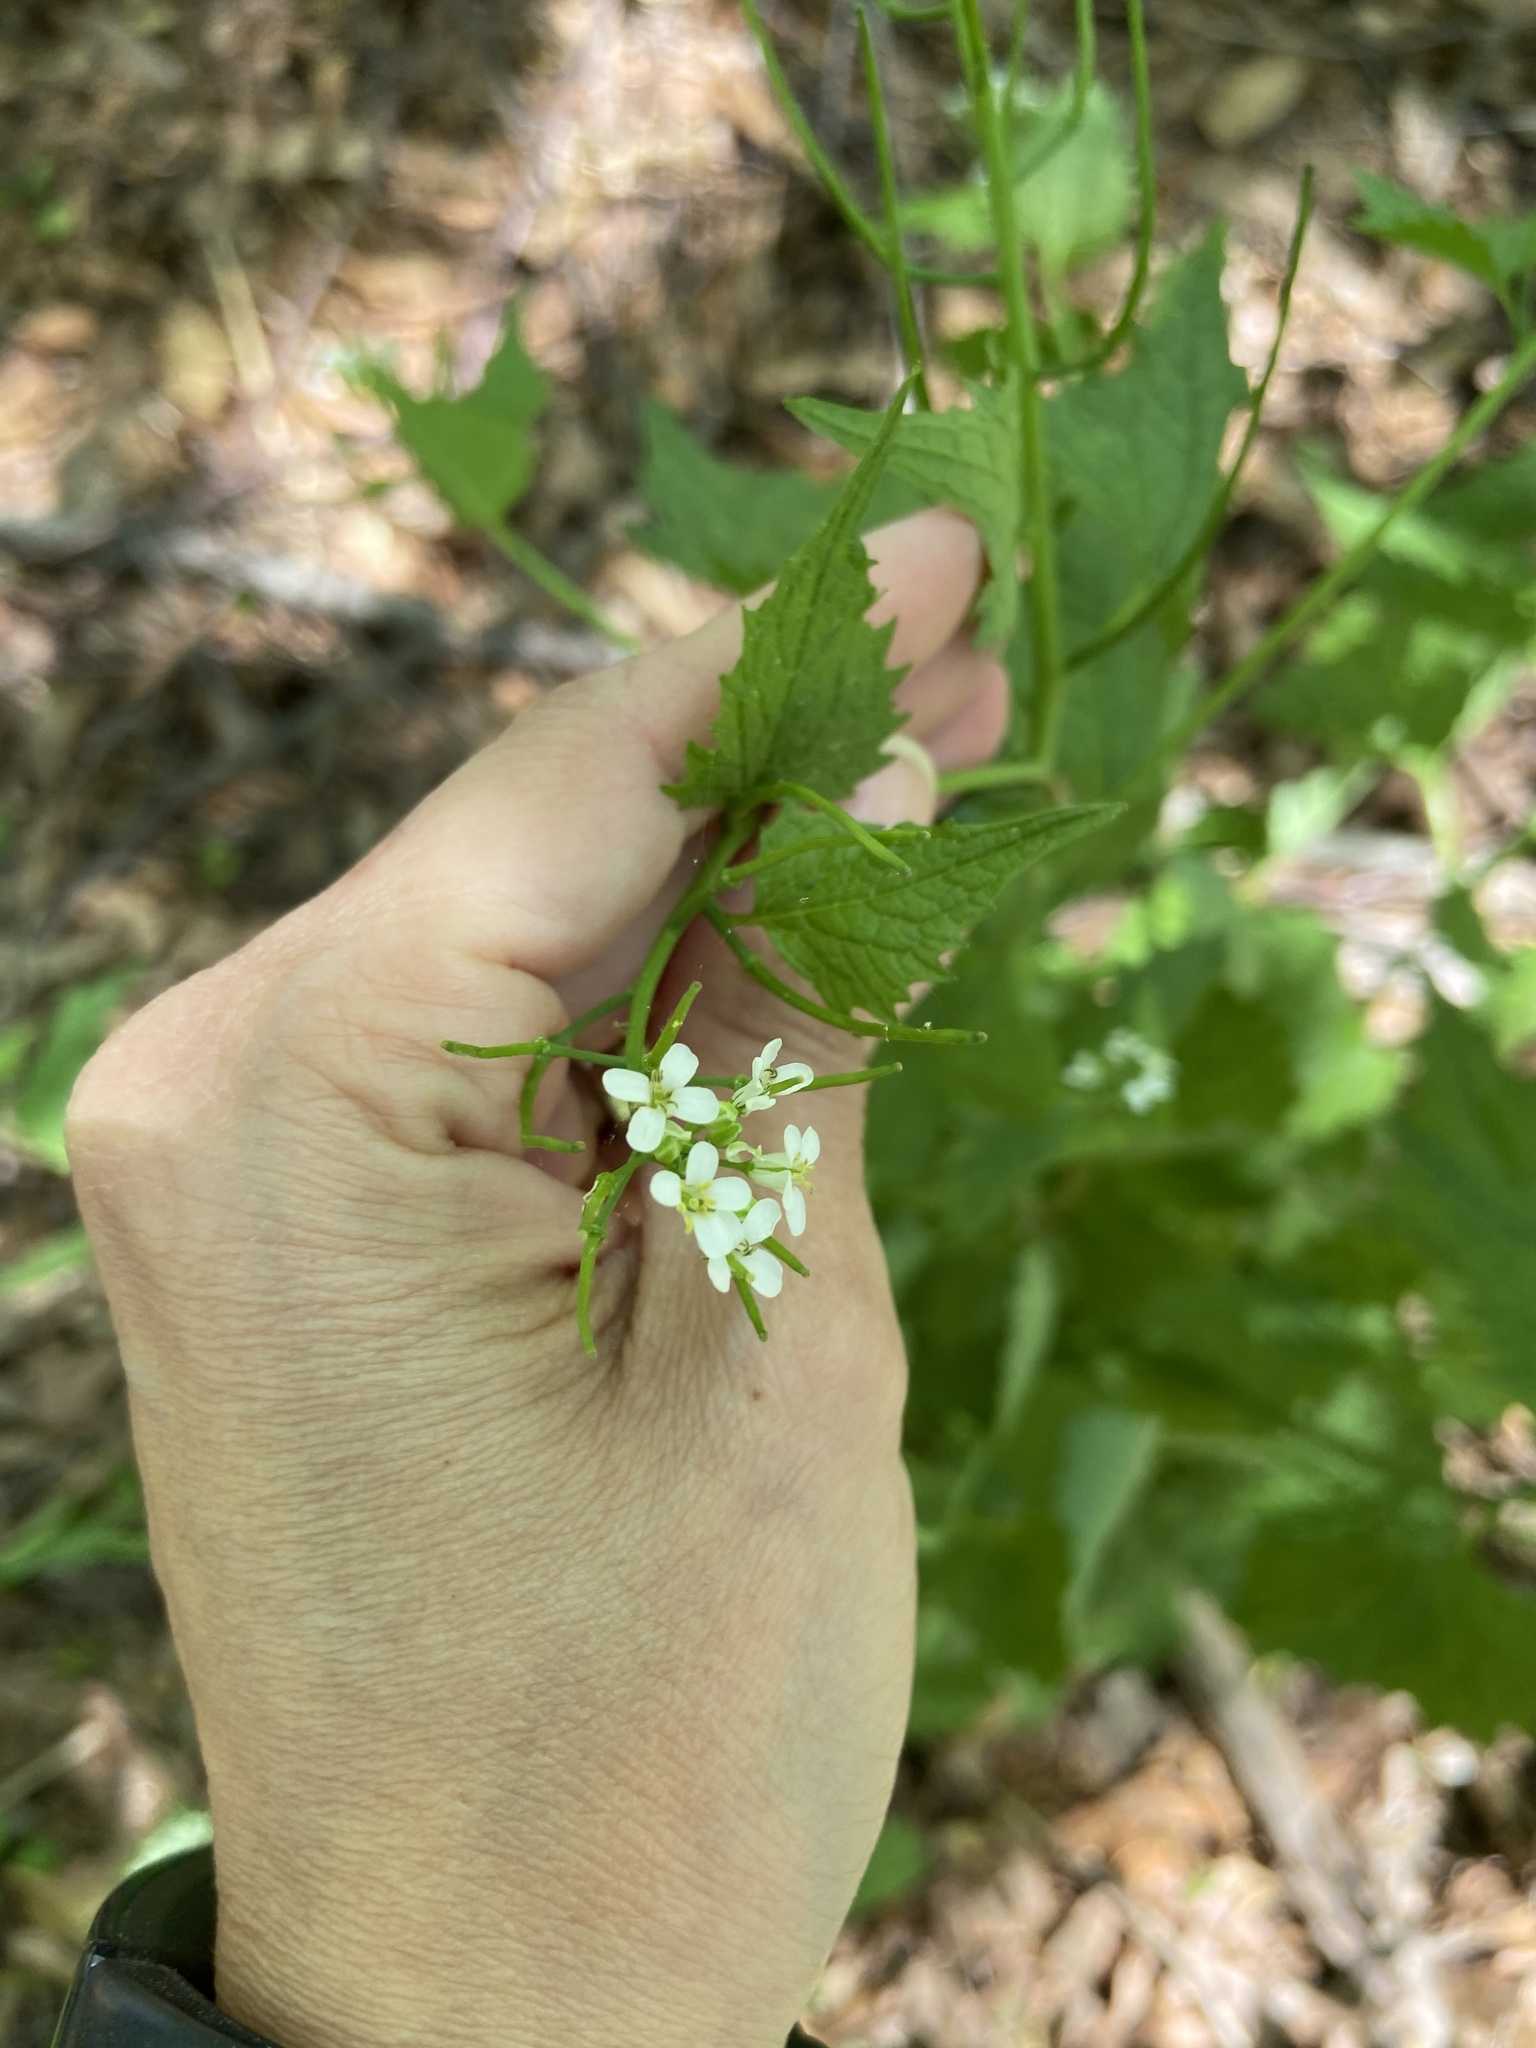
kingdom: Plantae
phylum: Tracheophyta
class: Magnoliopsida
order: Brassicales
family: Brassicaceae
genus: Alliaria
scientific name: Alliaria petiolata
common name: Garlic mustard
